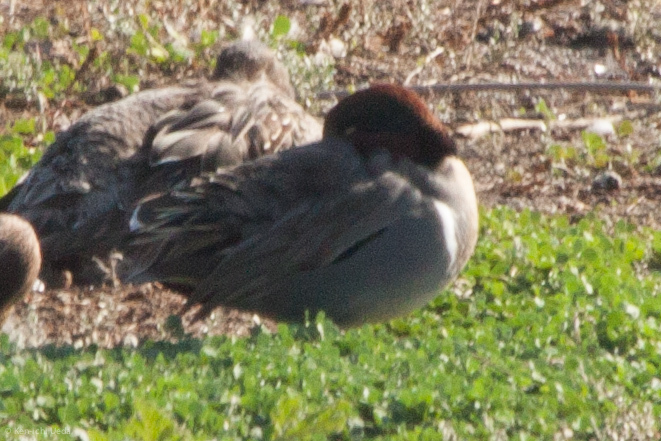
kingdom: Animalia
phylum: Chordata
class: Aves
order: Anseriformes
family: Anatidae
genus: Anas
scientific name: Anas crecca
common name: Eurasian teal
